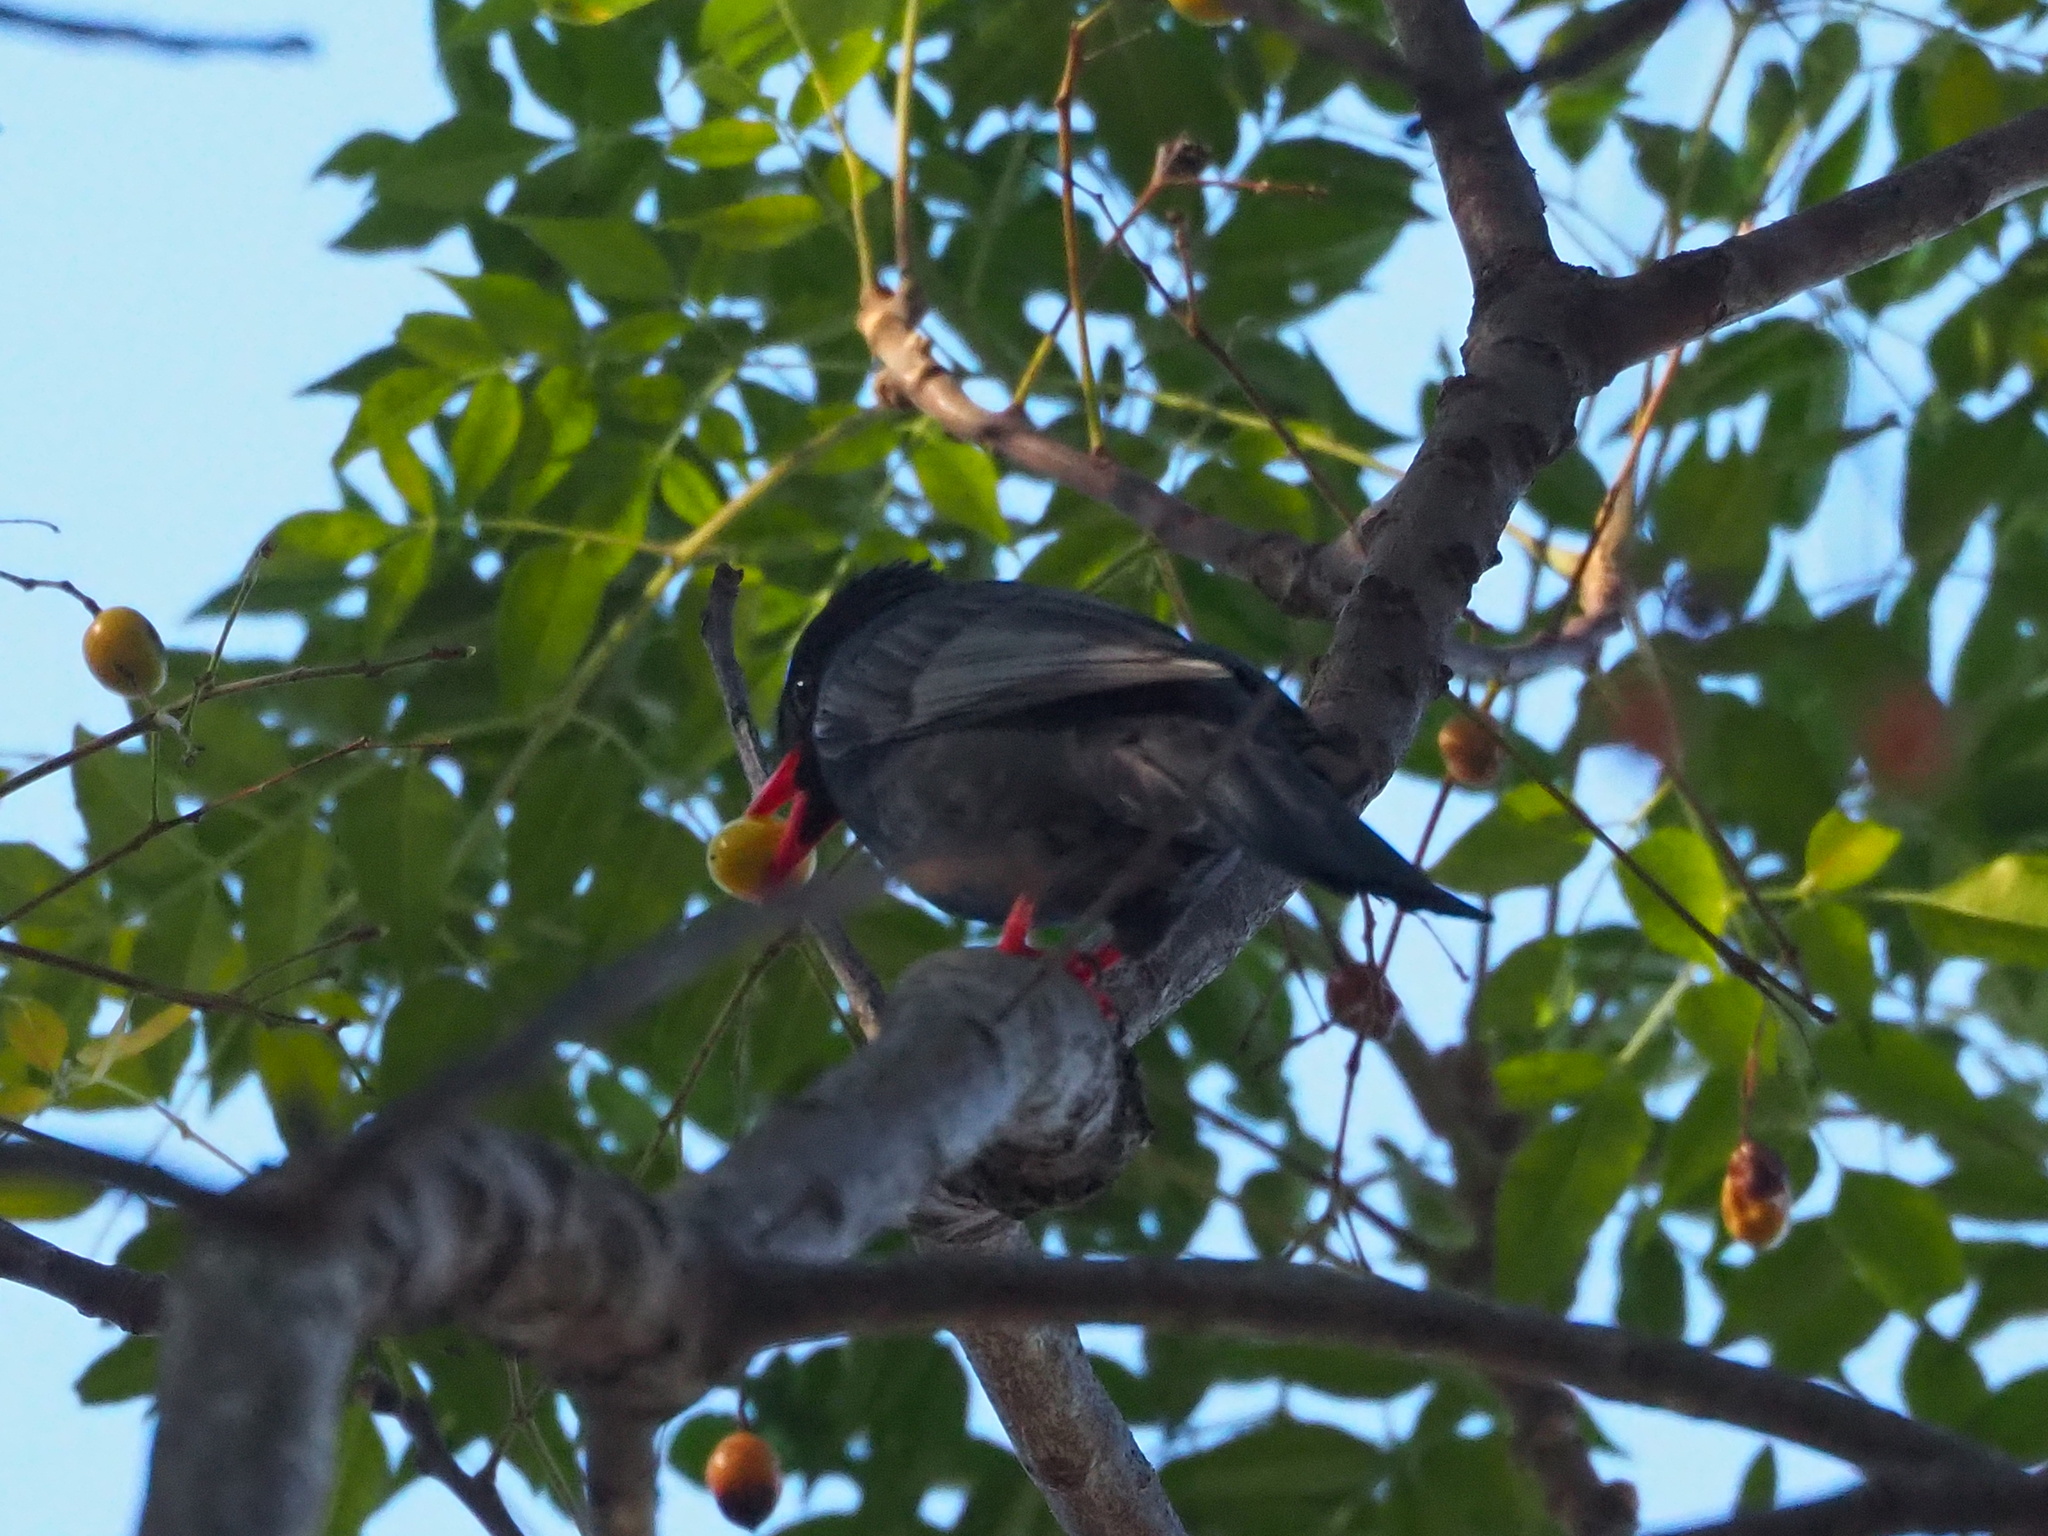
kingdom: Animalia
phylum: Chordata
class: Aves
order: Passeriformes
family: Pycnonotidae
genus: Hypsipetes
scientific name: Hypsipetes leucocephalus
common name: Black bulbul
